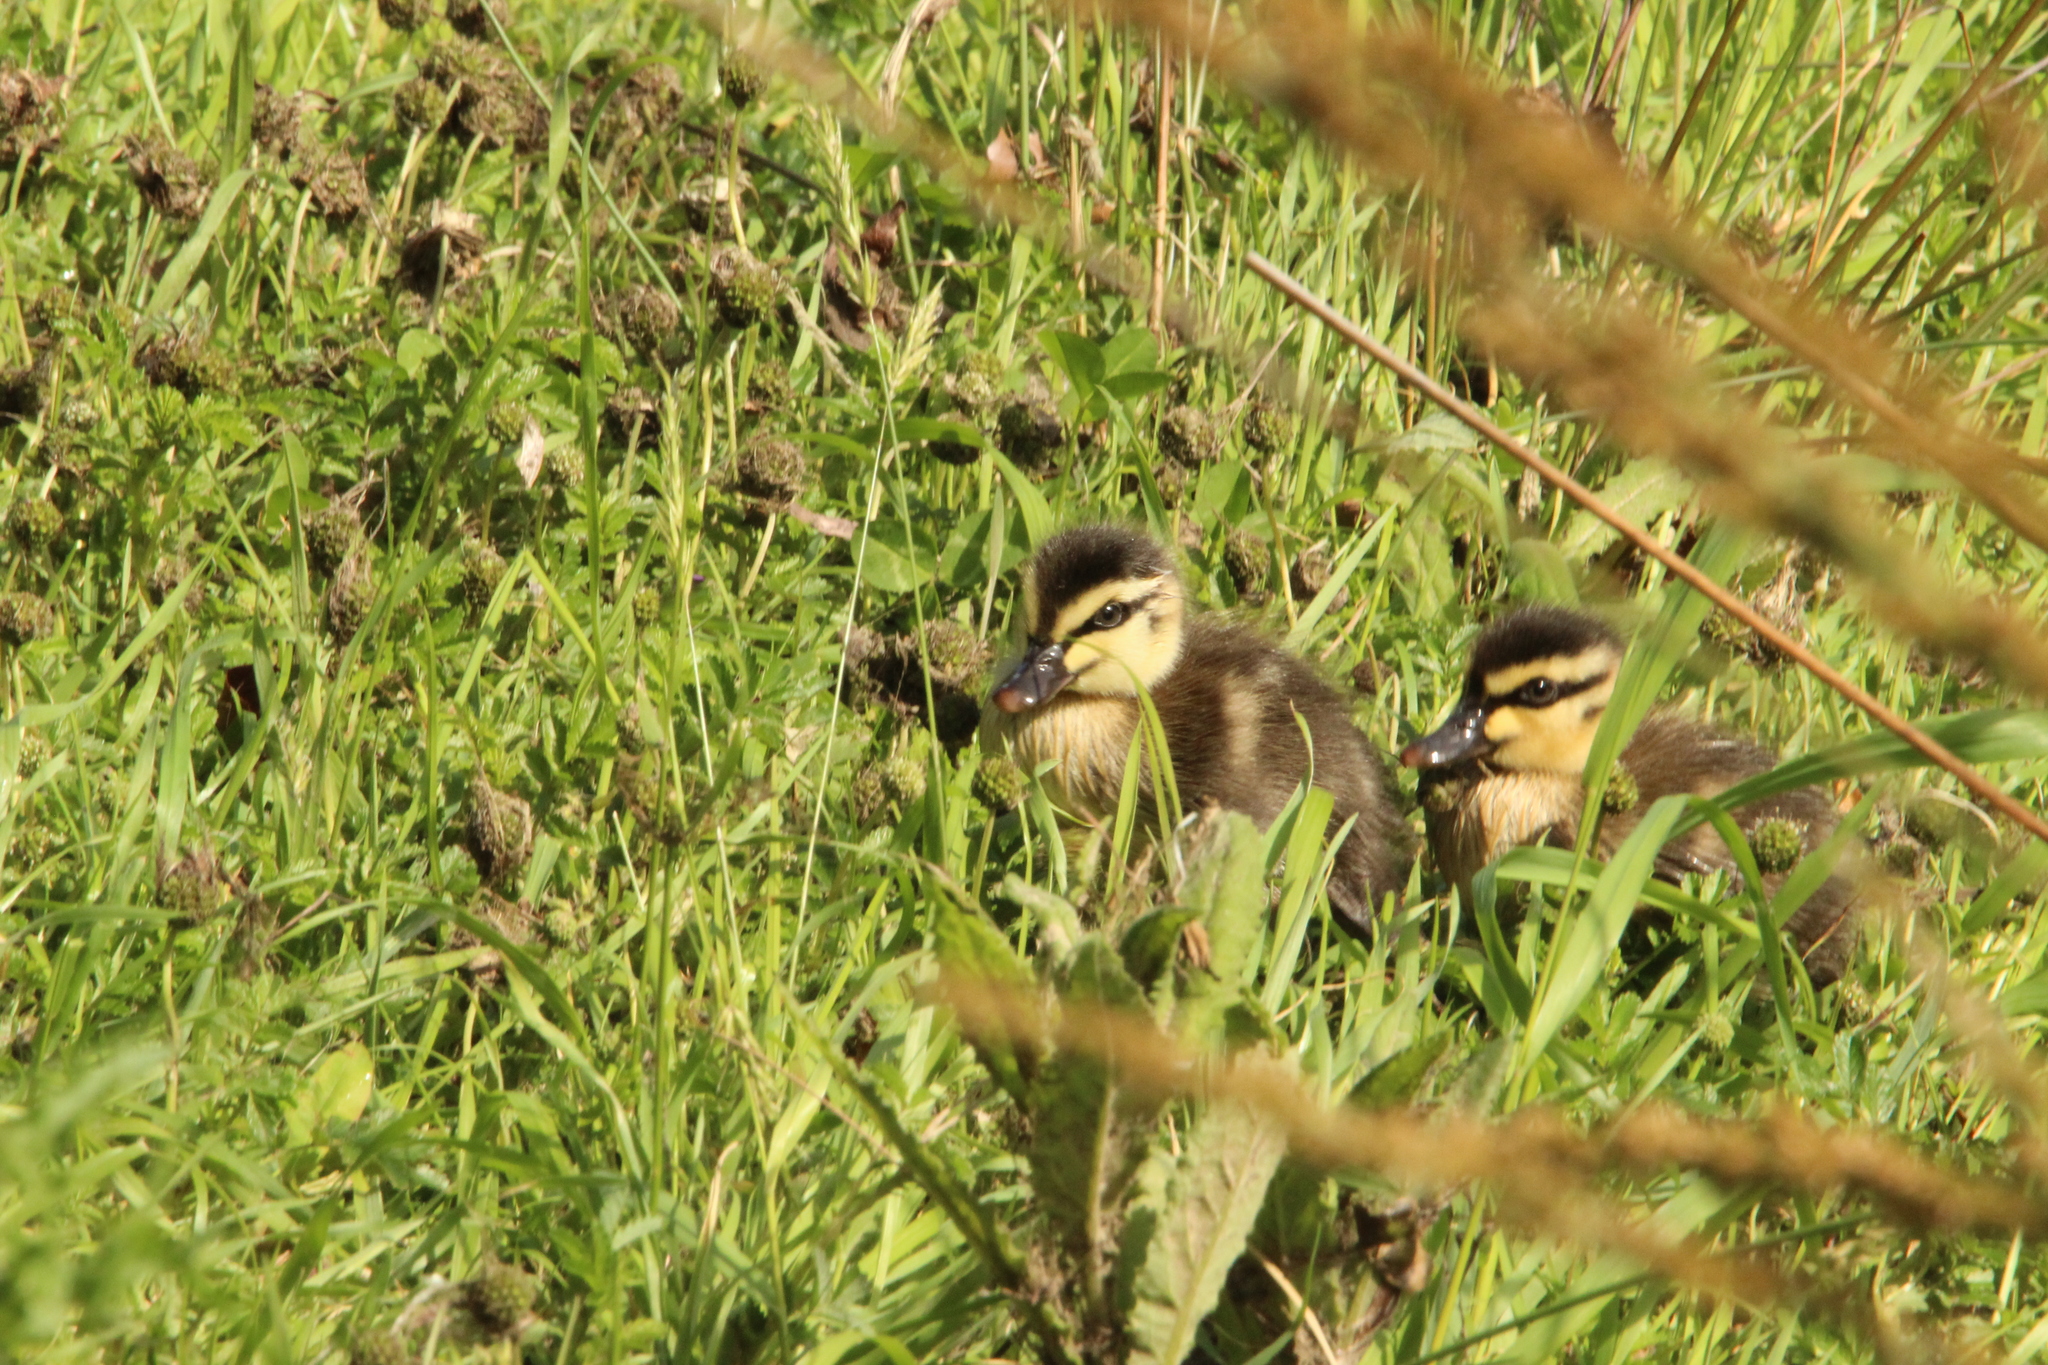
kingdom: Animalia
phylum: Chordata
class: Aves
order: Anseriformes
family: Anatidae
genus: Anas
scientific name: Anas superciliosa
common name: Pacific black duck
